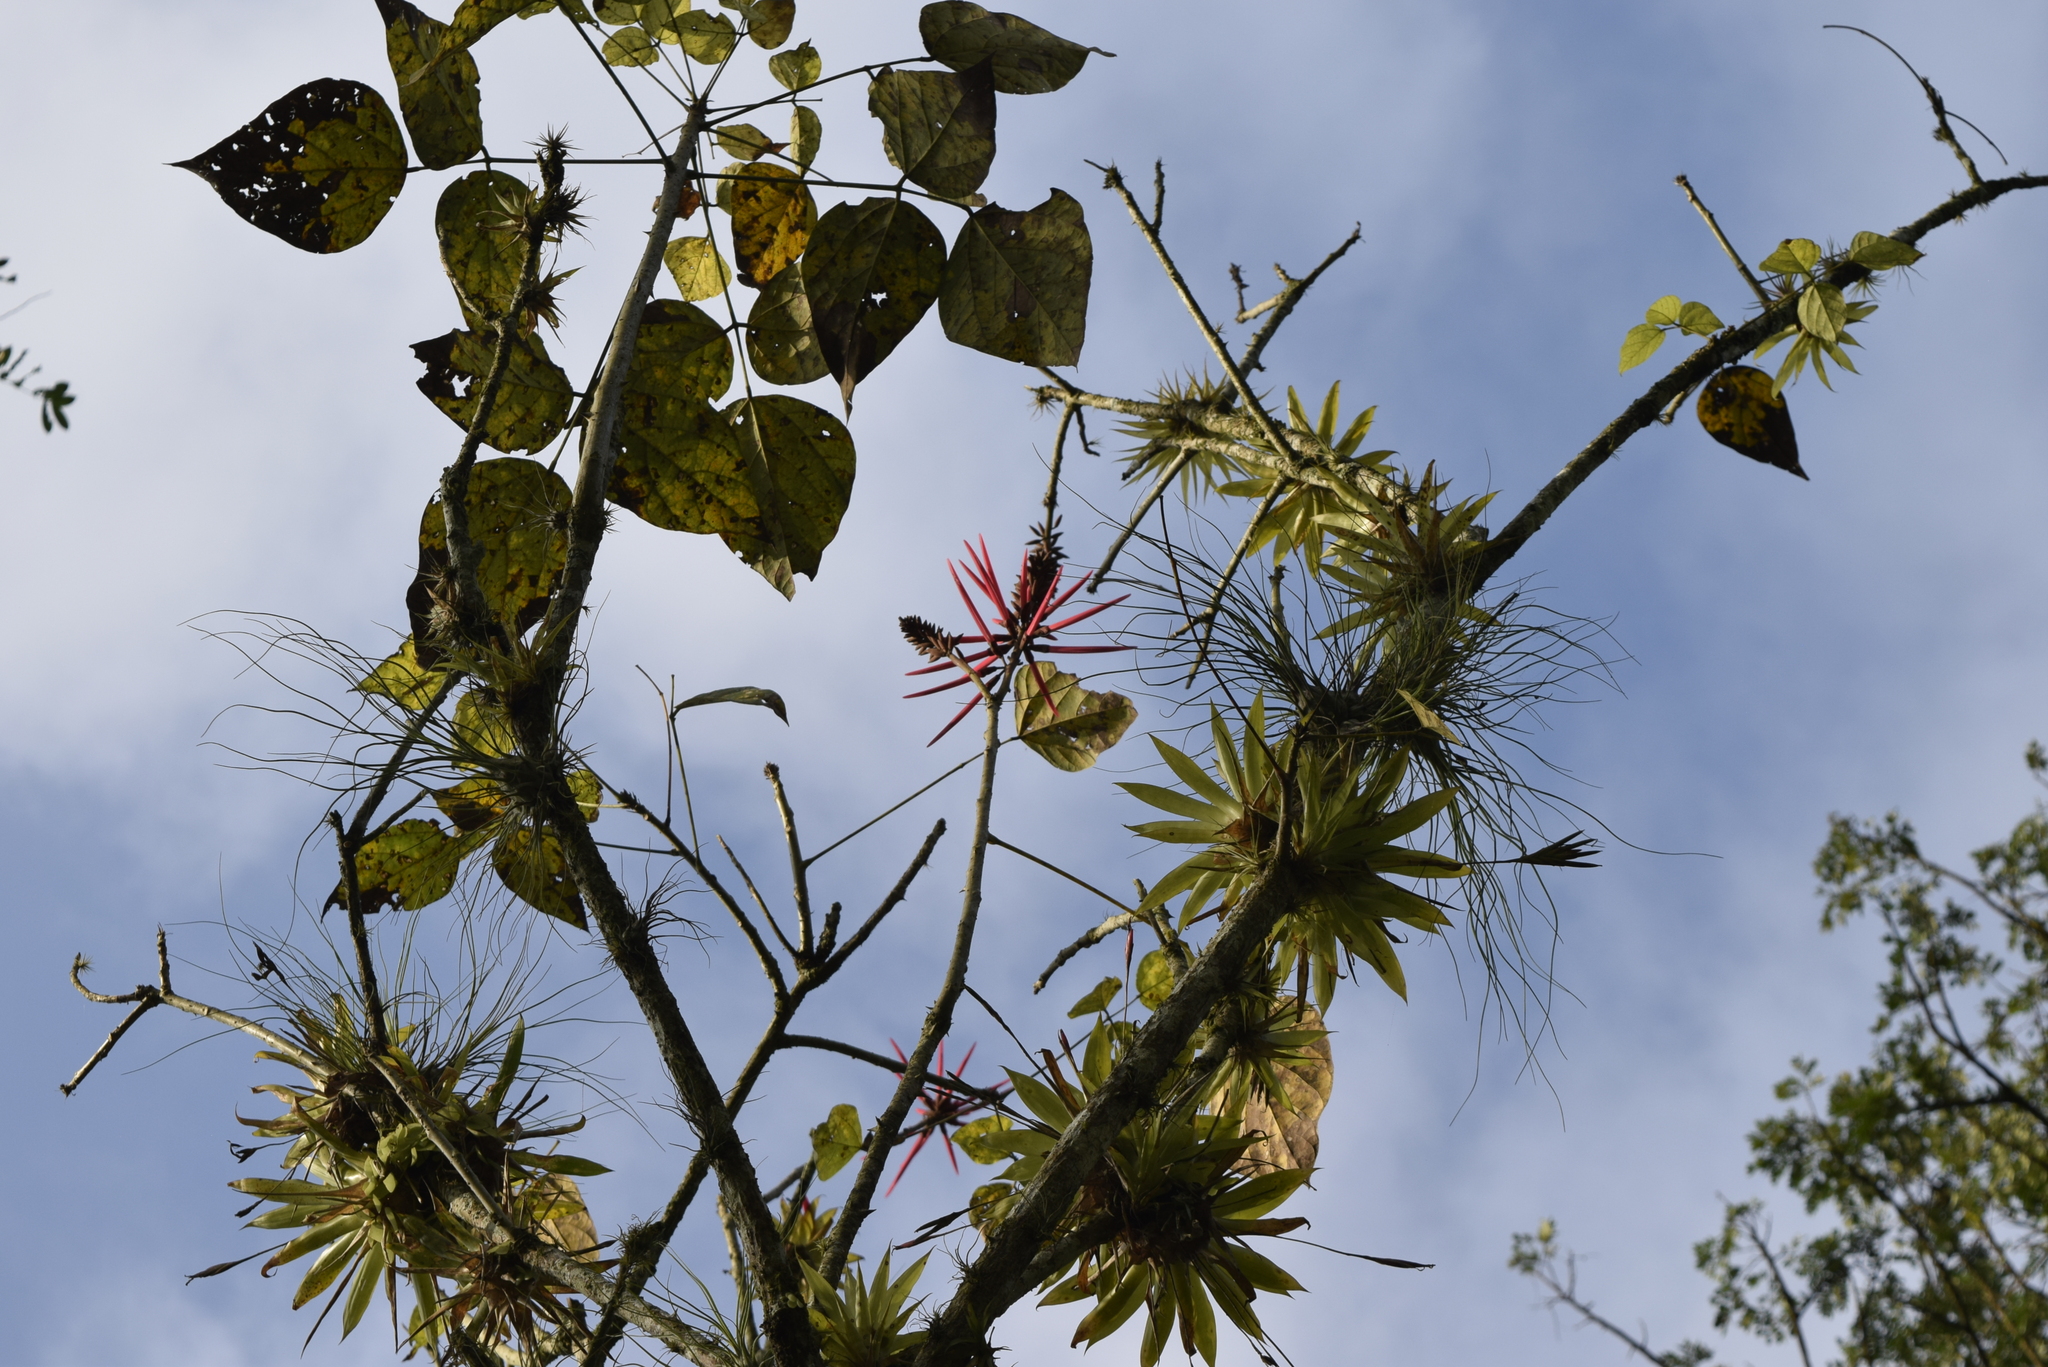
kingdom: Plantae
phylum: Tracheophyta
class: Magnoliopsida
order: Fabales
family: Fabaceae
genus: Erythrina
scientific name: Erythrina smithiana
